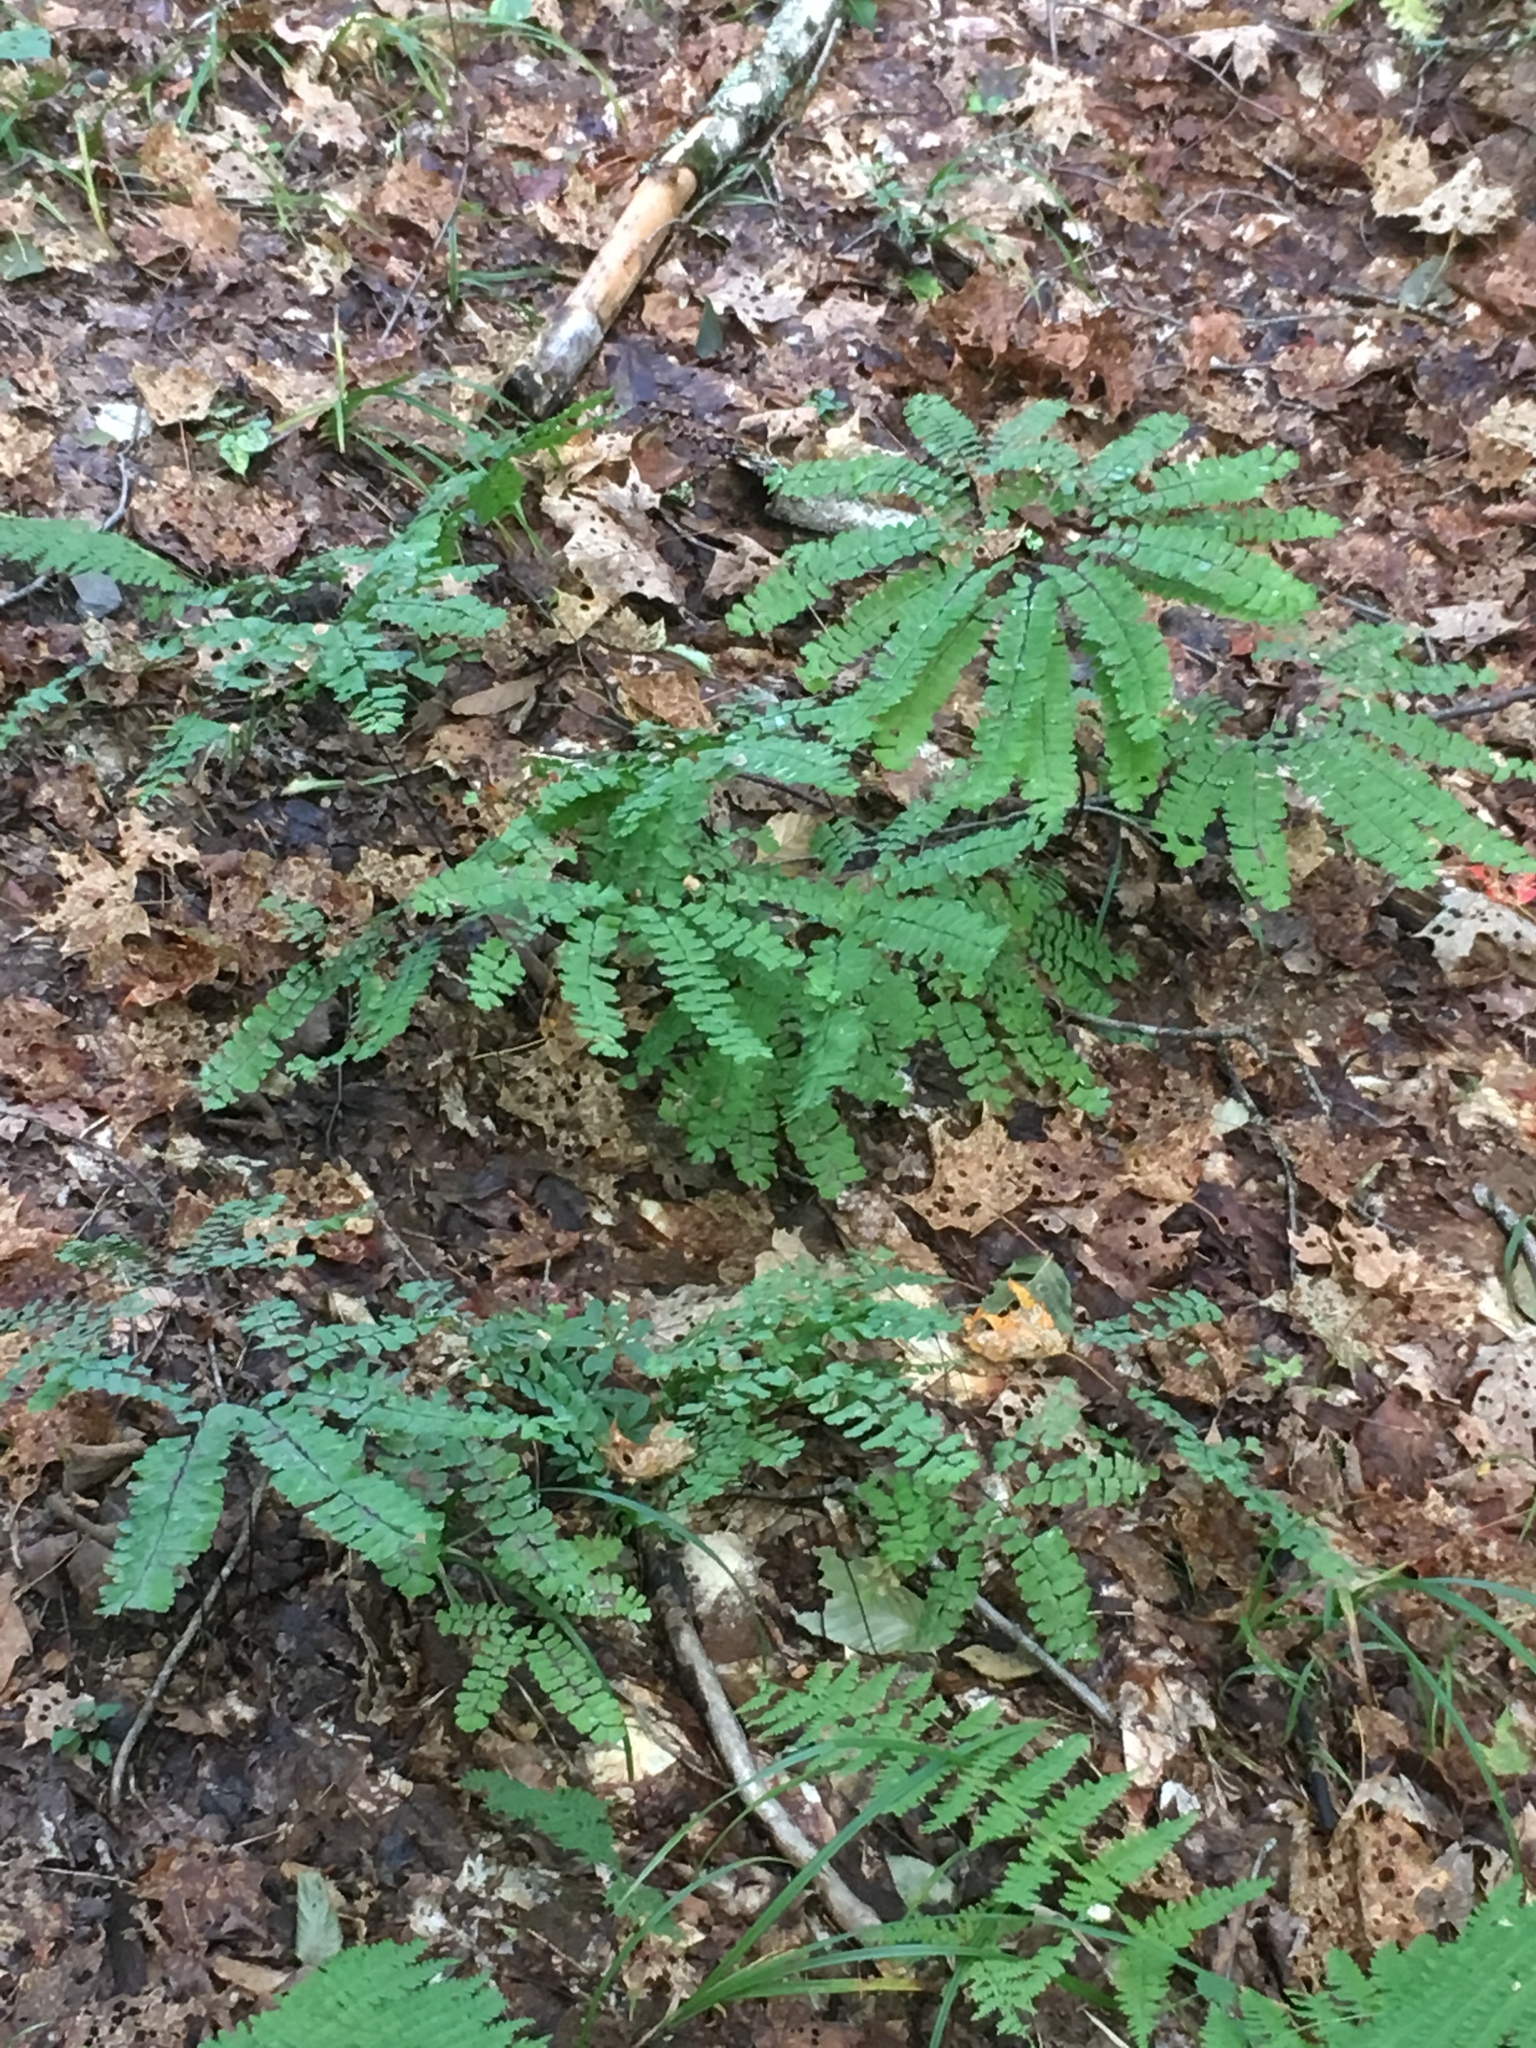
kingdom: Plantae
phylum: Tracheophyta
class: Polypodiopsida
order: Polypodiales
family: Pteridaceae
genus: Adiantum
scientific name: Adiantum pedatum
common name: Five-finger fern
